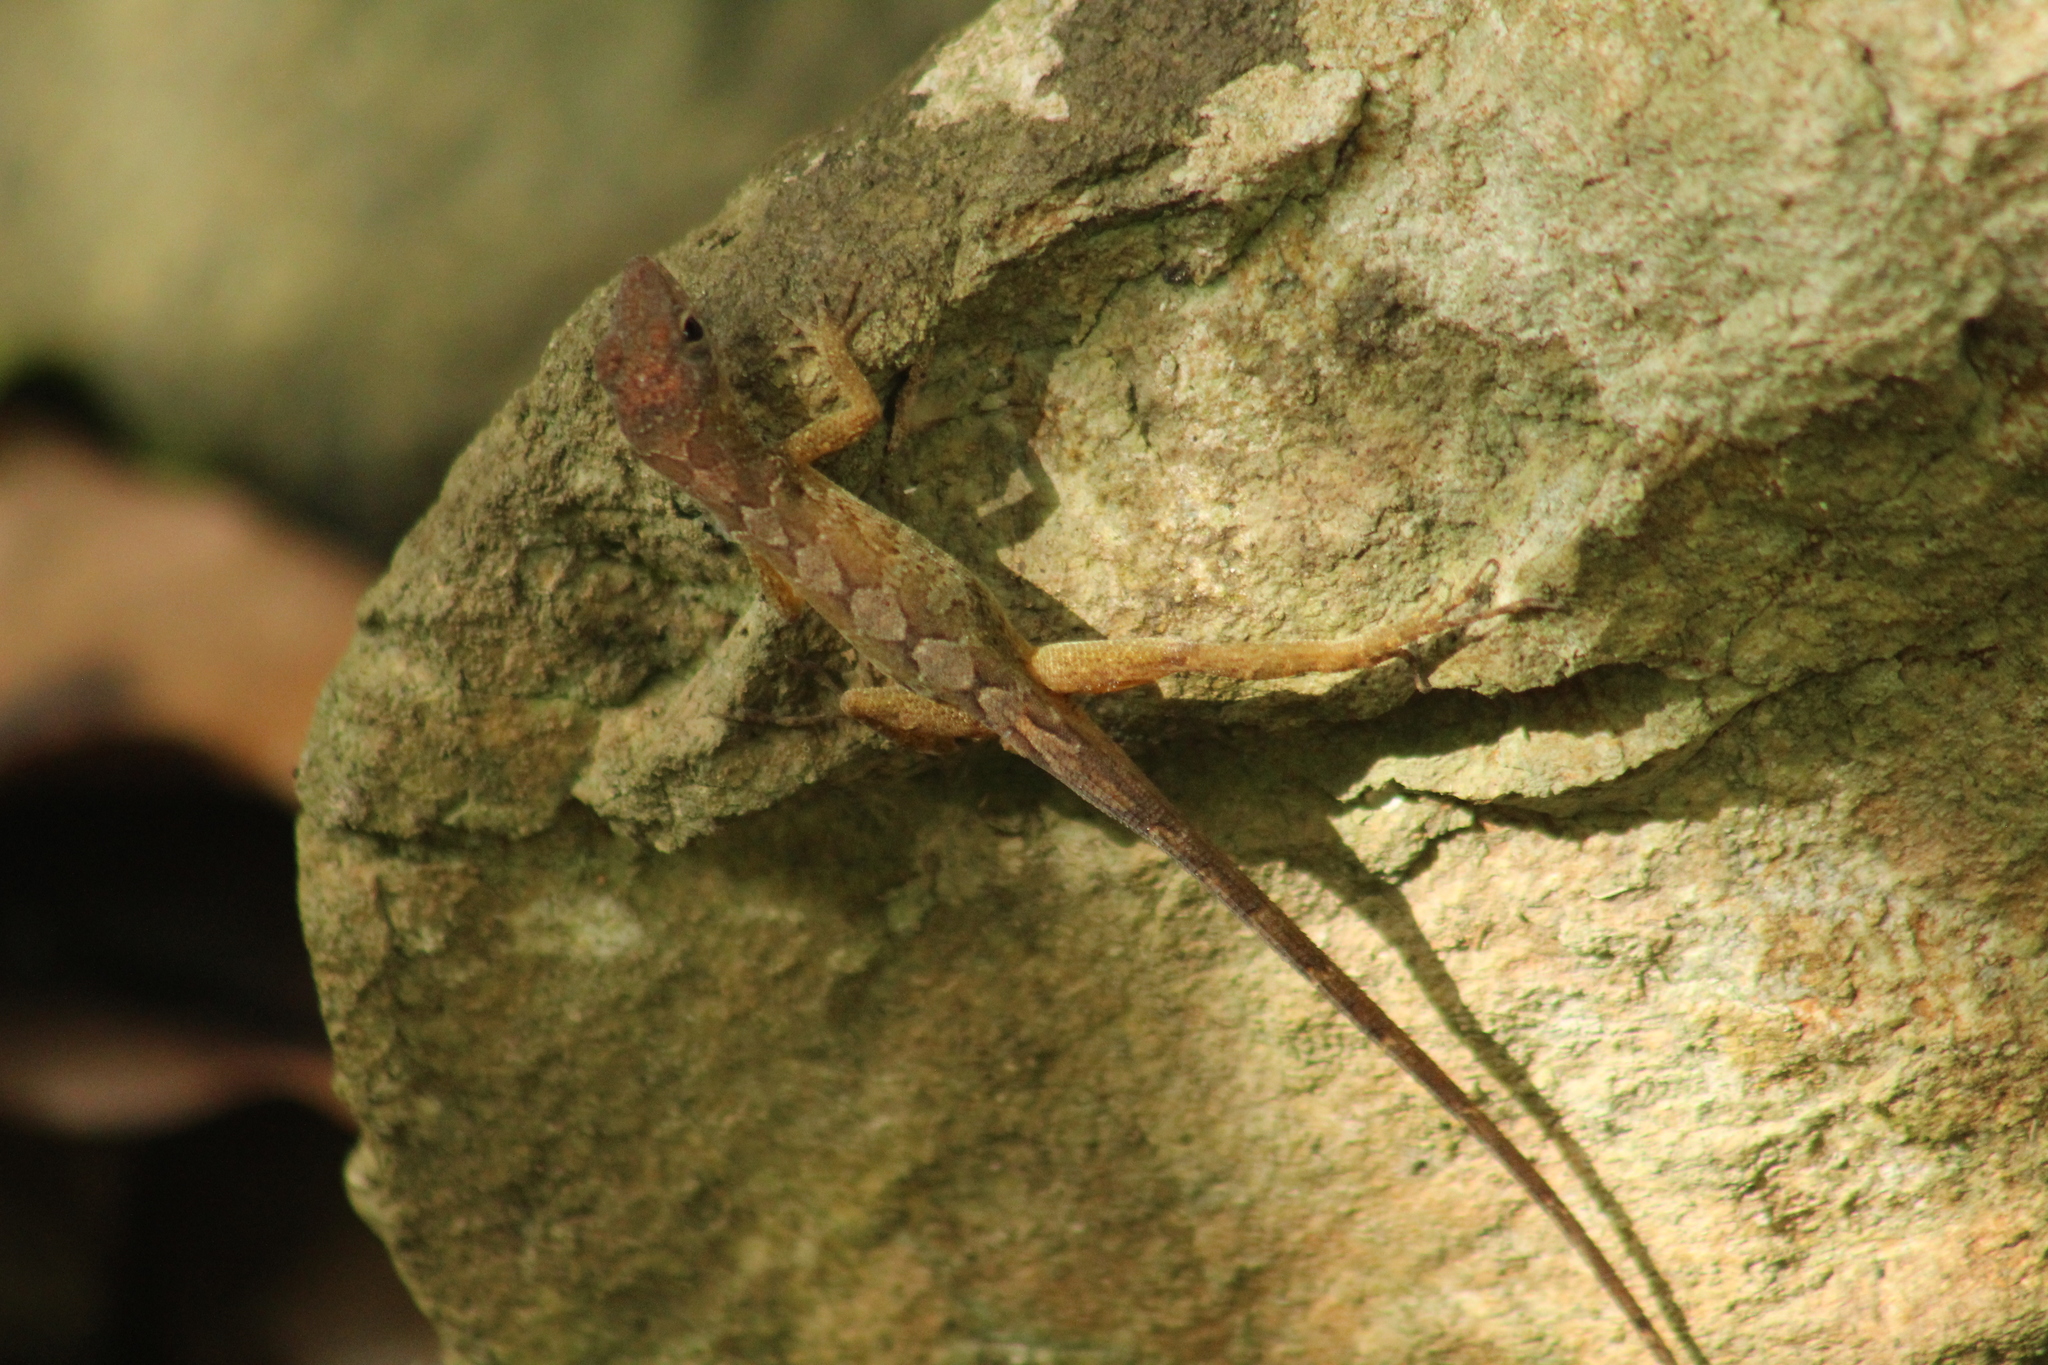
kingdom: Animalia
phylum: Chordata
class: Squamata
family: Dactyloidae
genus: Anolis
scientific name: Anolis pogus
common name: Anguilla bank bush anole
